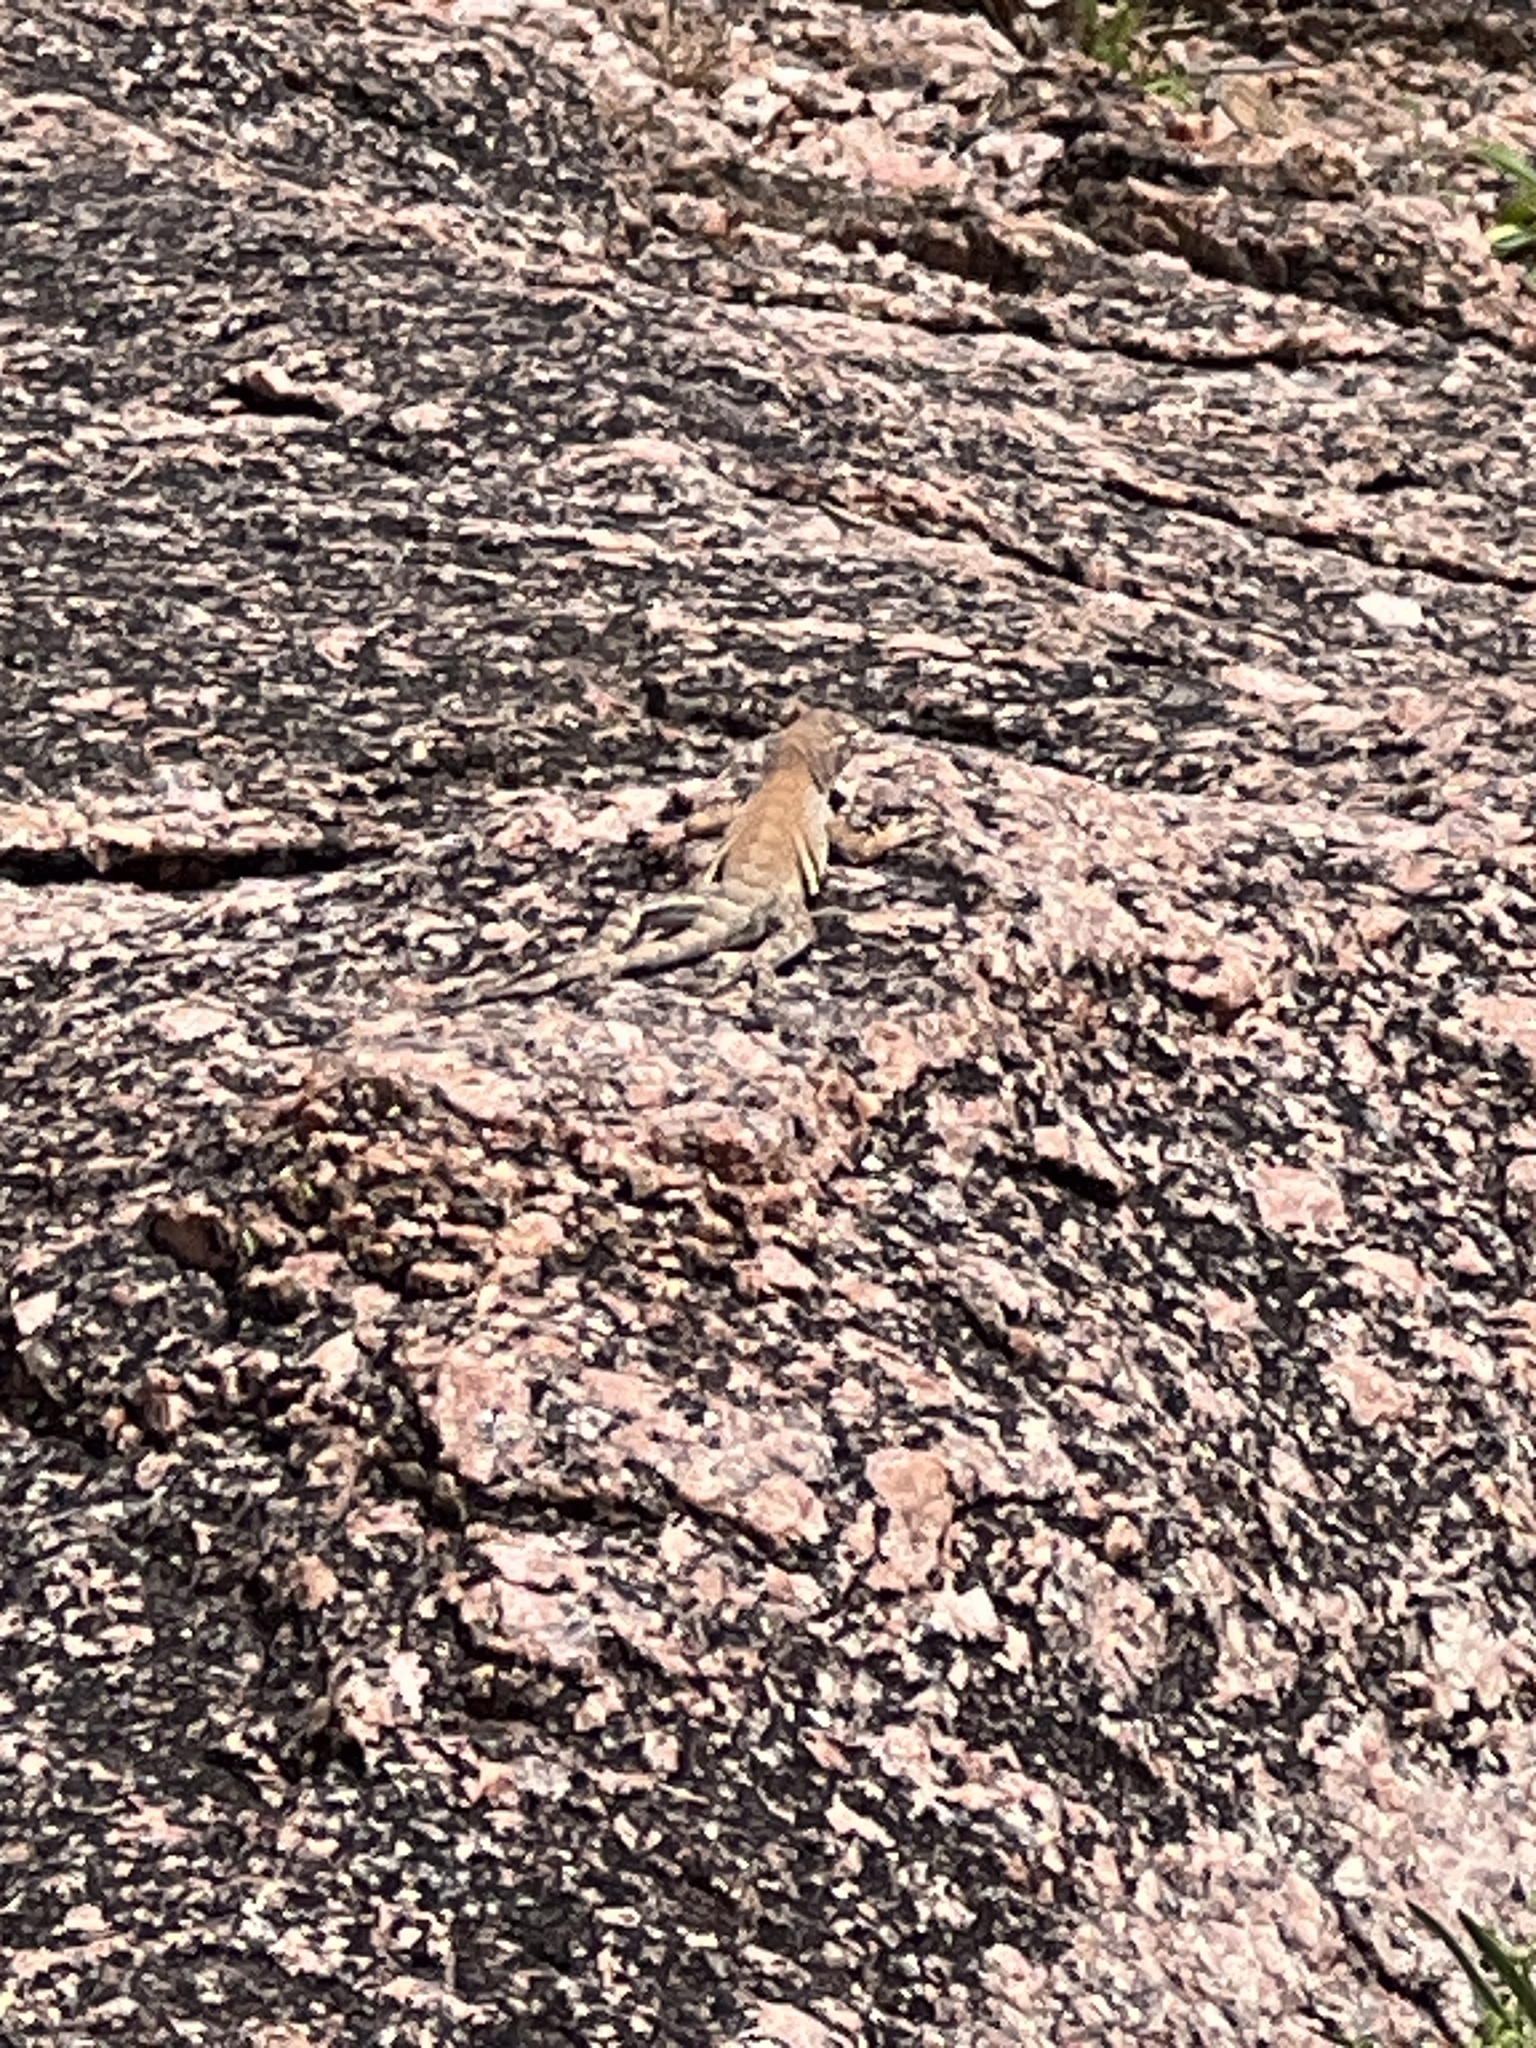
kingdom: Animalia
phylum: Chordata
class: Squamata
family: Phrynosomatidae
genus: Cophosaurus
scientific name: Cophosaurus texanus
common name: Greater earless lizard
